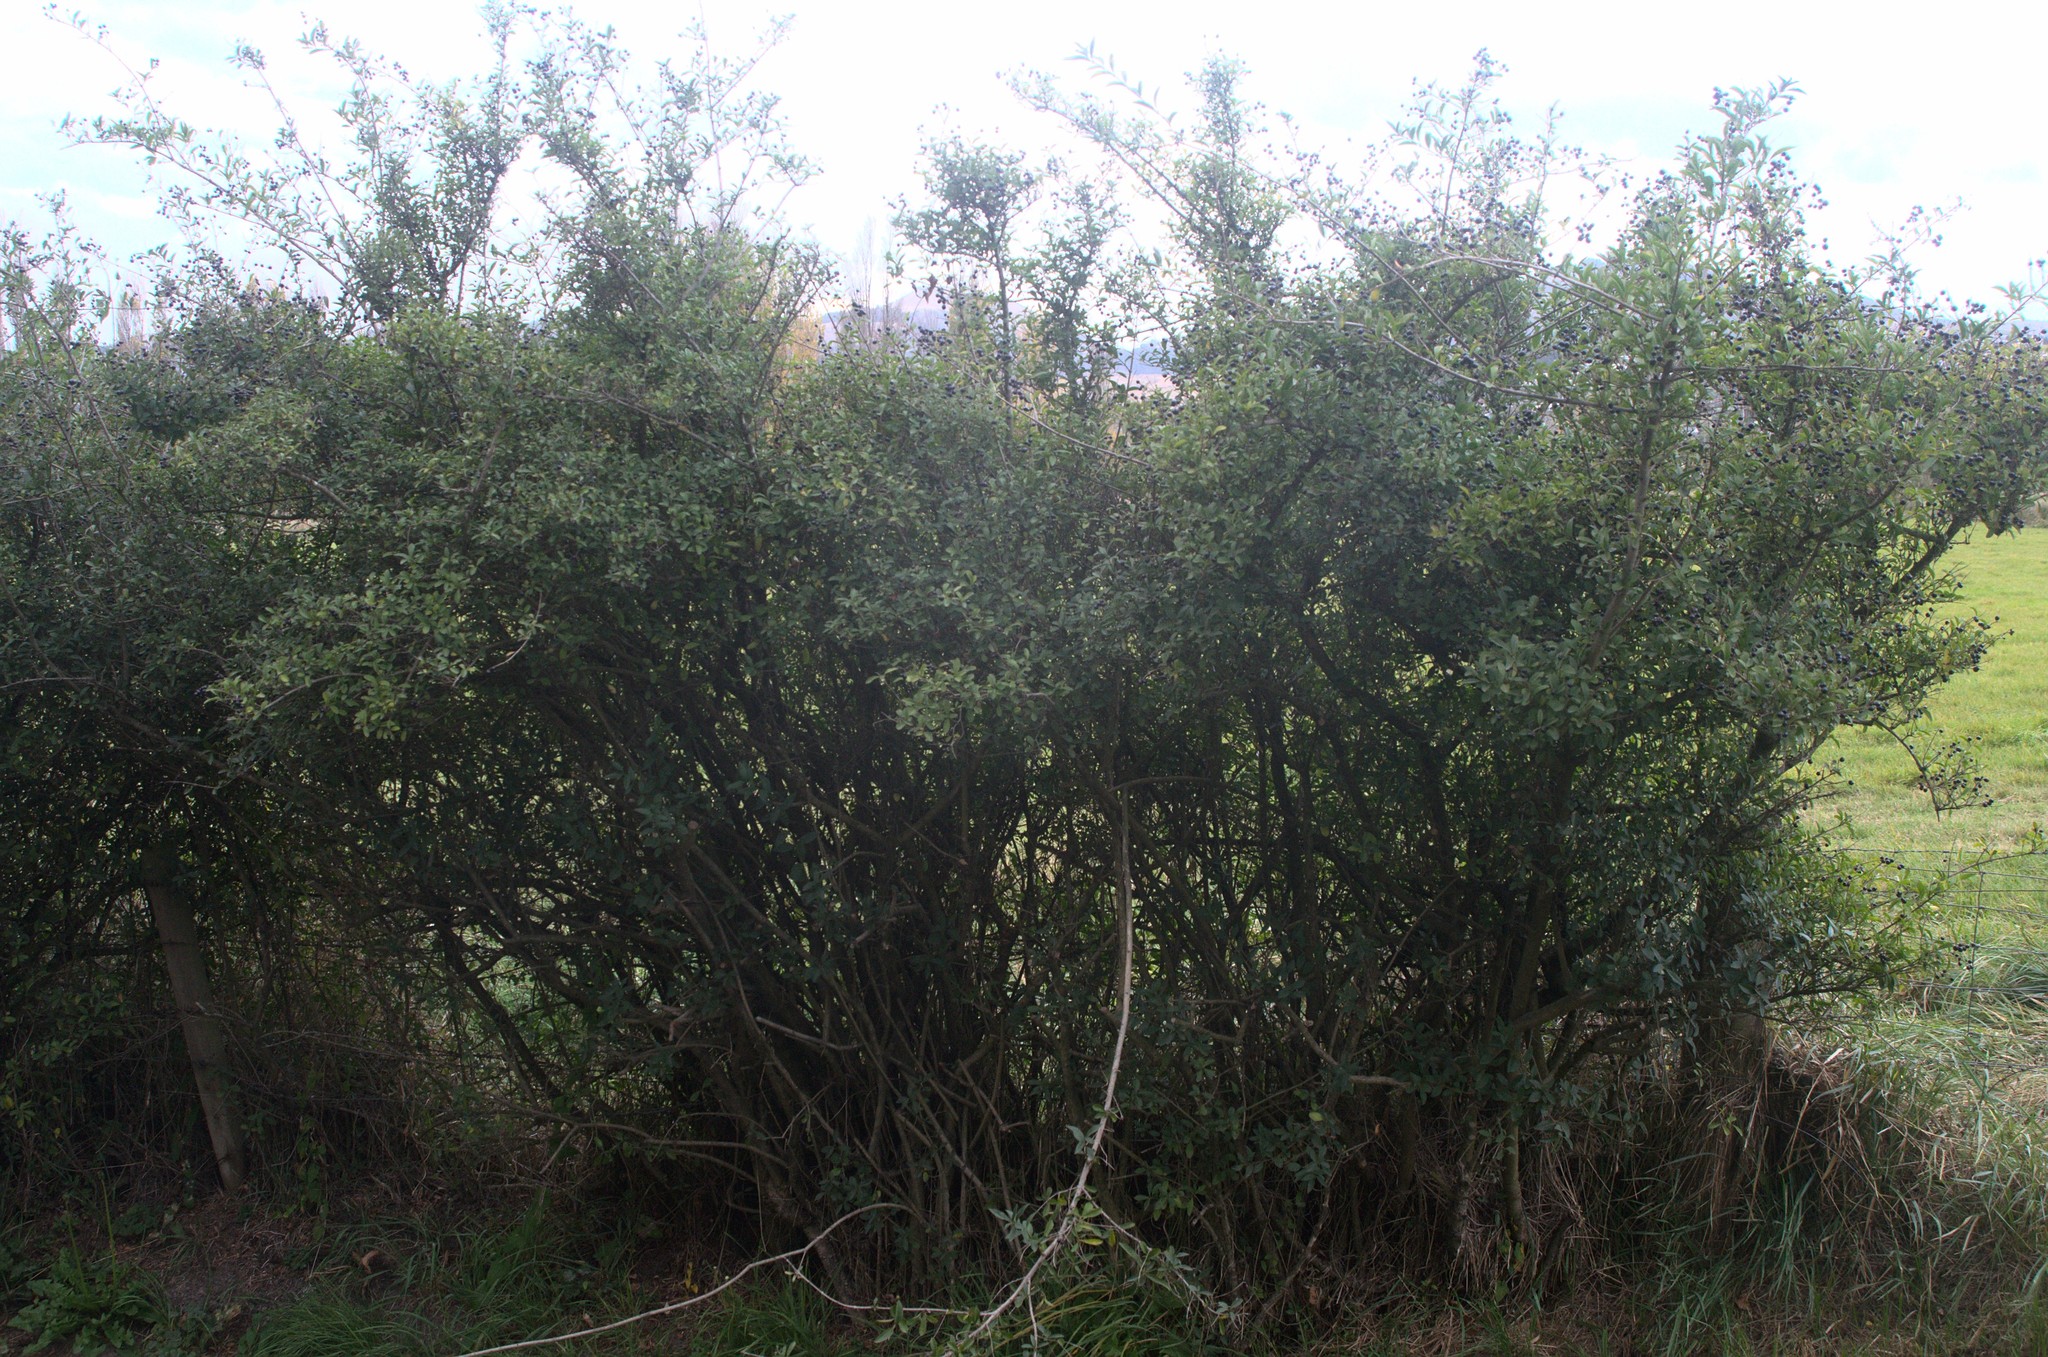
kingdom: Plantae
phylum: Tracheophyta
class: Magnoliopsida
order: Lamiales
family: Oleaceae
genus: Ligustrum
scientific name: Ligustrum
